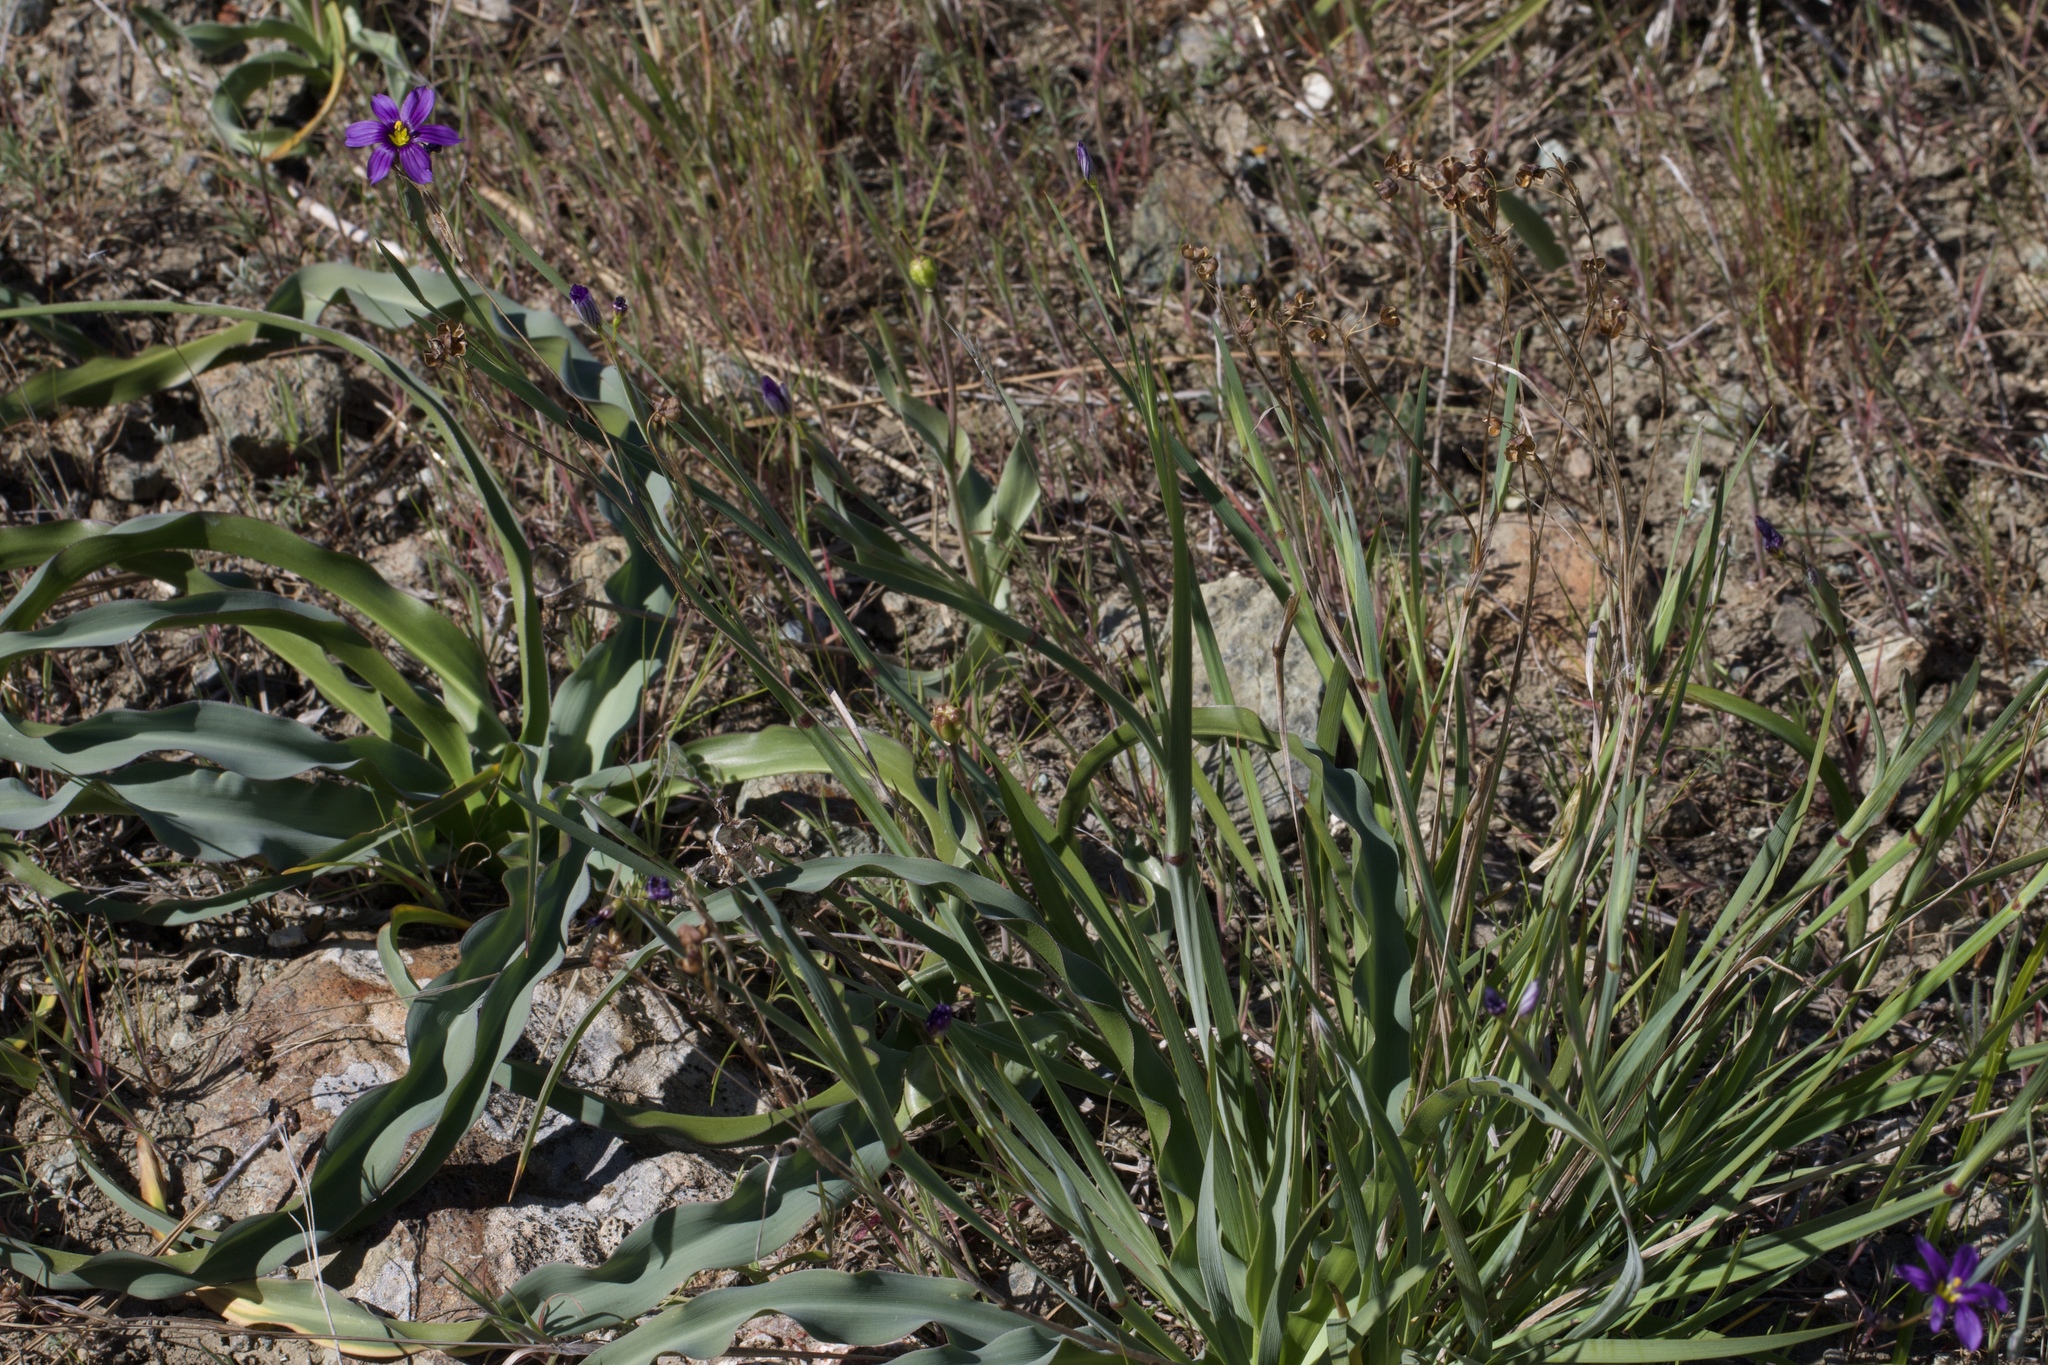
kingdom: Plantae
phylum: Tracheophyta
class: Liliopsida
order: Asparagales
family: Iridaceae
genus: Sisyrinchium
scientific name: Sisyrinchium bellum
